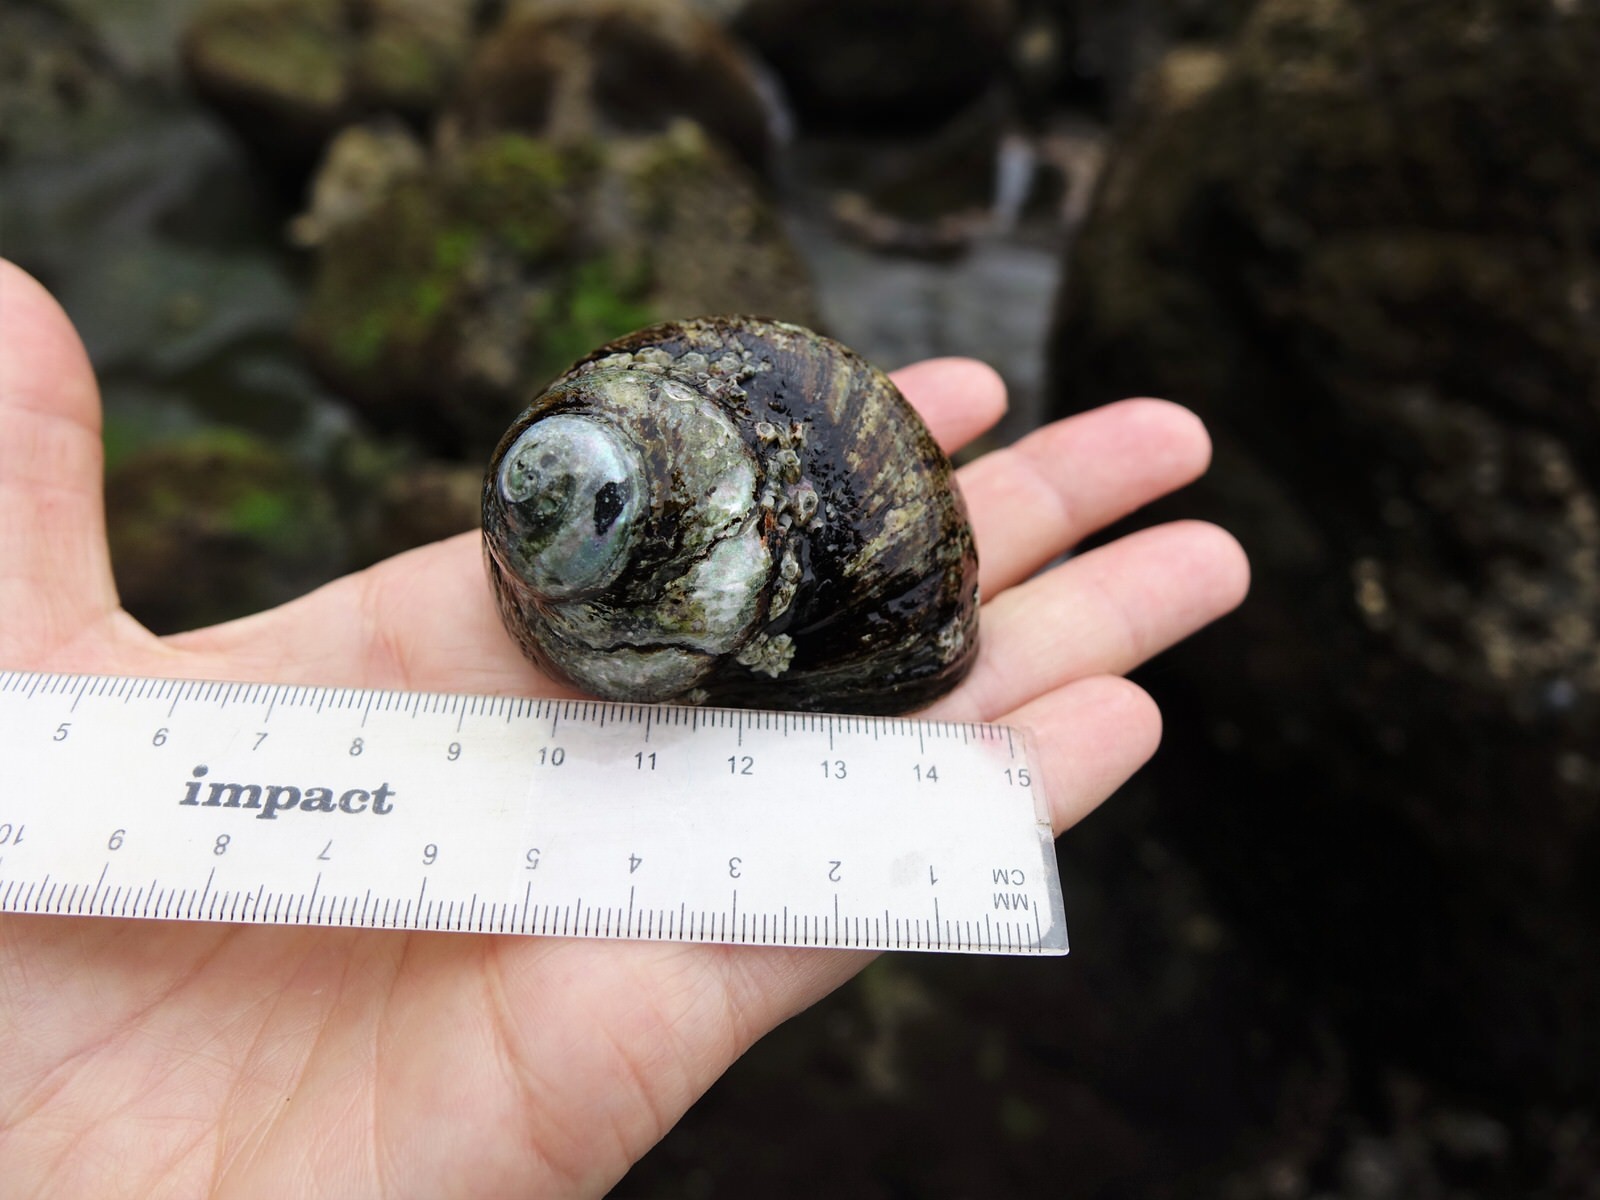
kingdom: Animalia
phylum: Mollusca
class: Gastropoda
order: Trochida
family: Turbinidae
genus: Lunella
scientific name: Lunella smaragda
